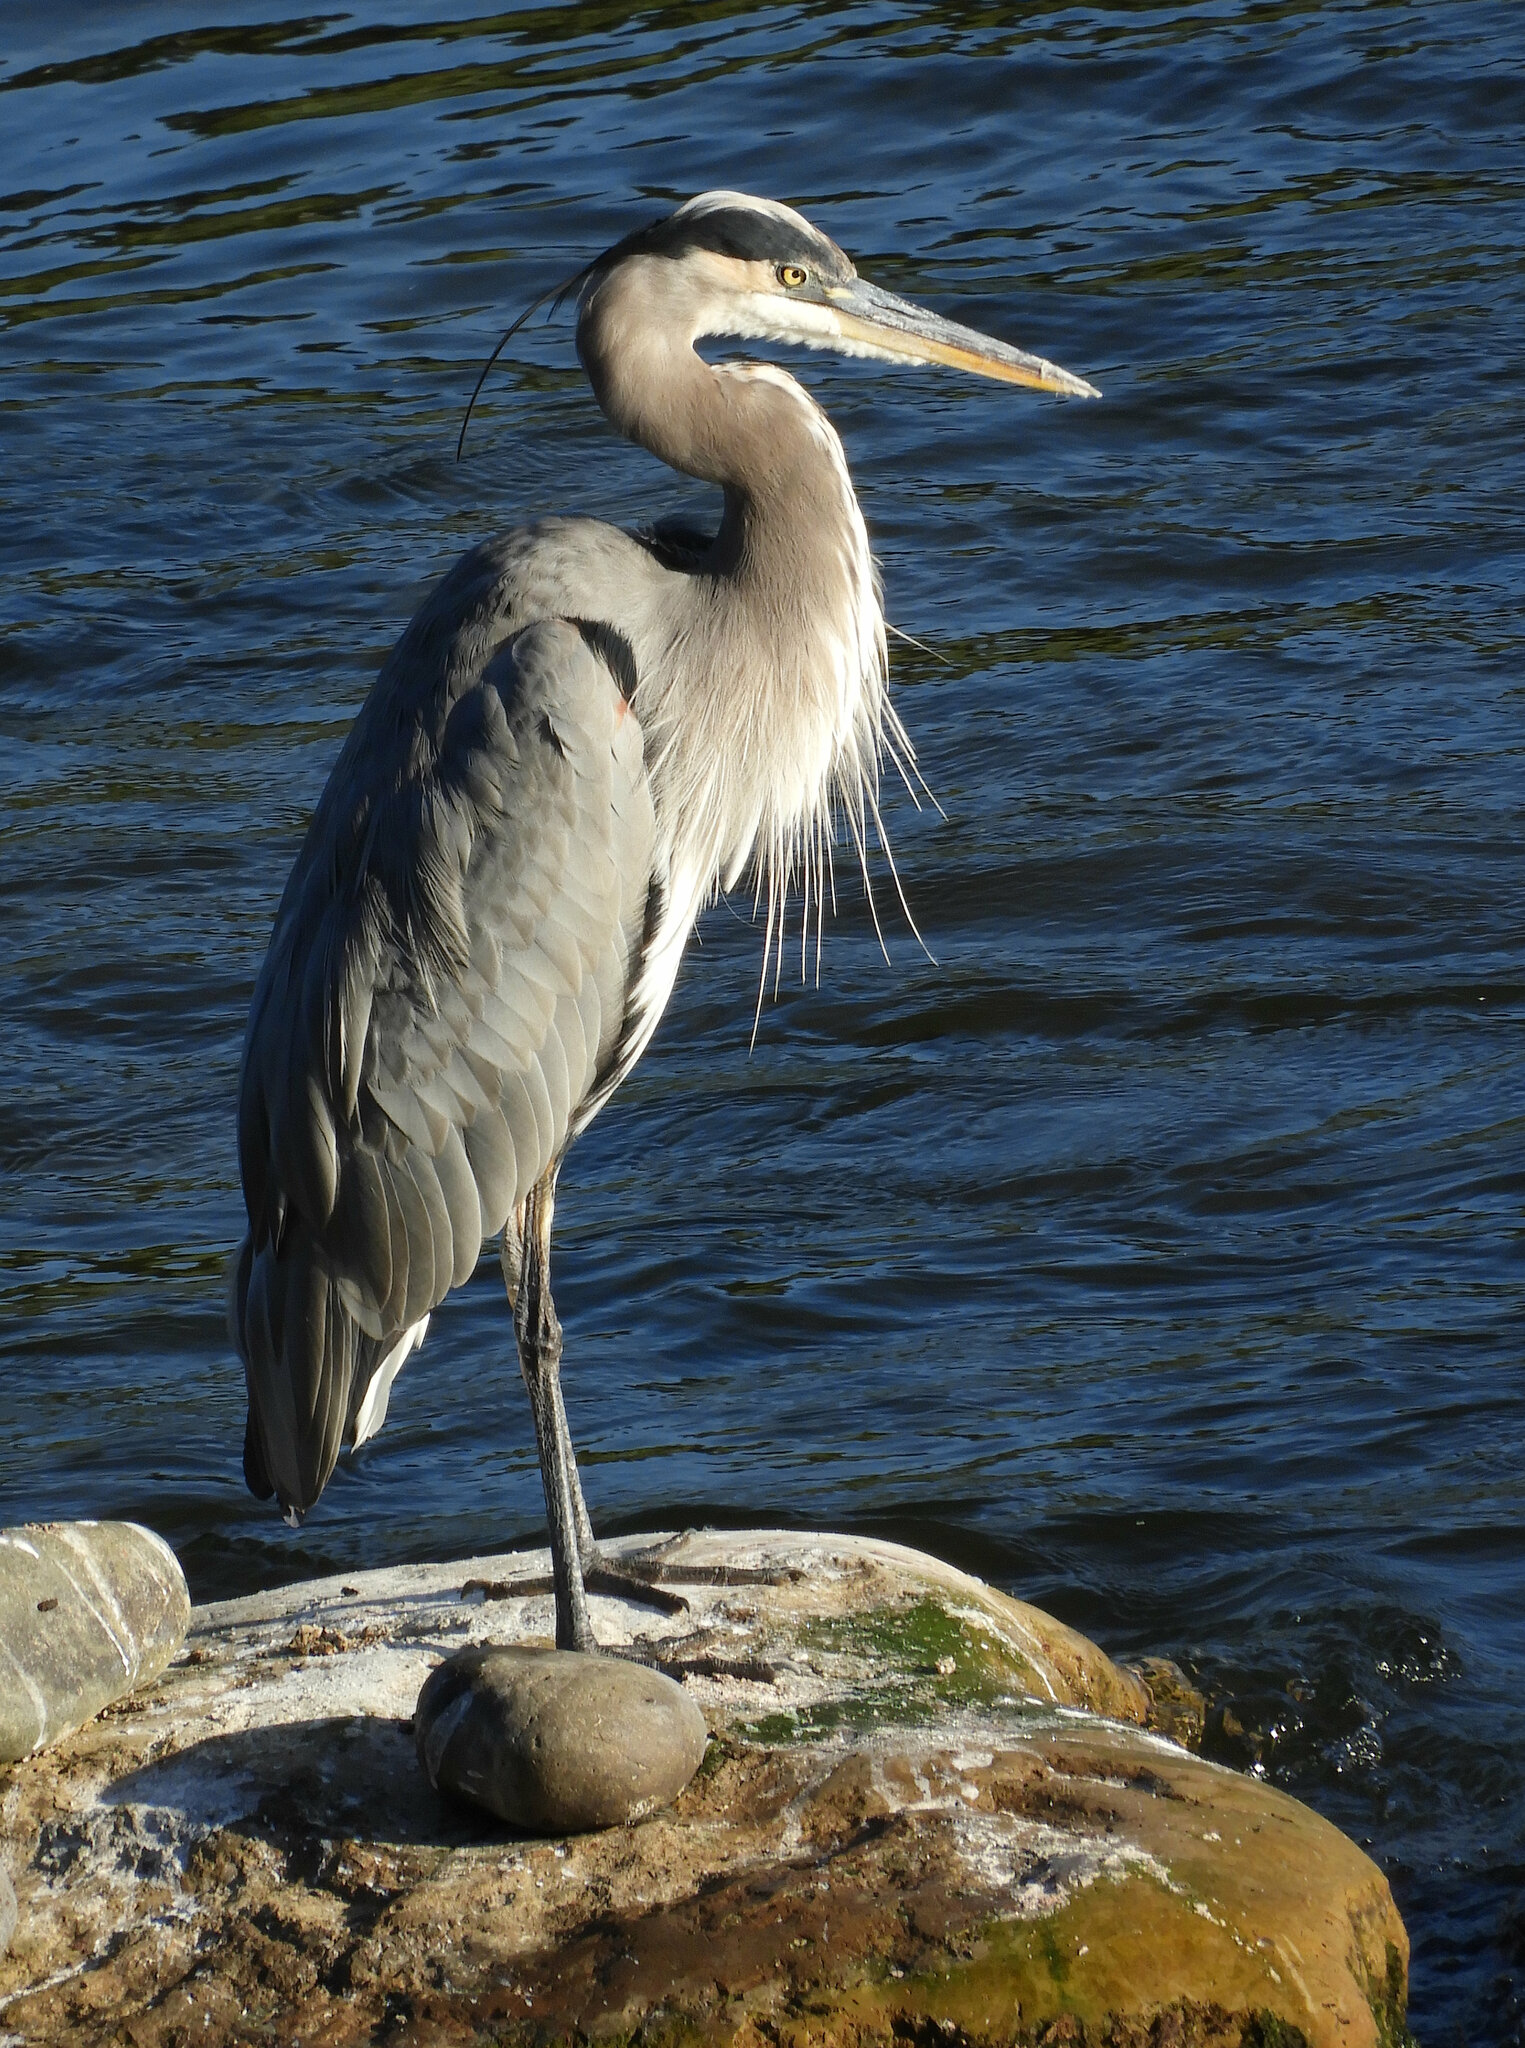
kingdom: Animalia
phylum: Chordata
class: Aves
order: Pelecaniformes
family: Ardeidae
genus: Ardea
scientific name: Ardea herodias
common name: Great blue heron
